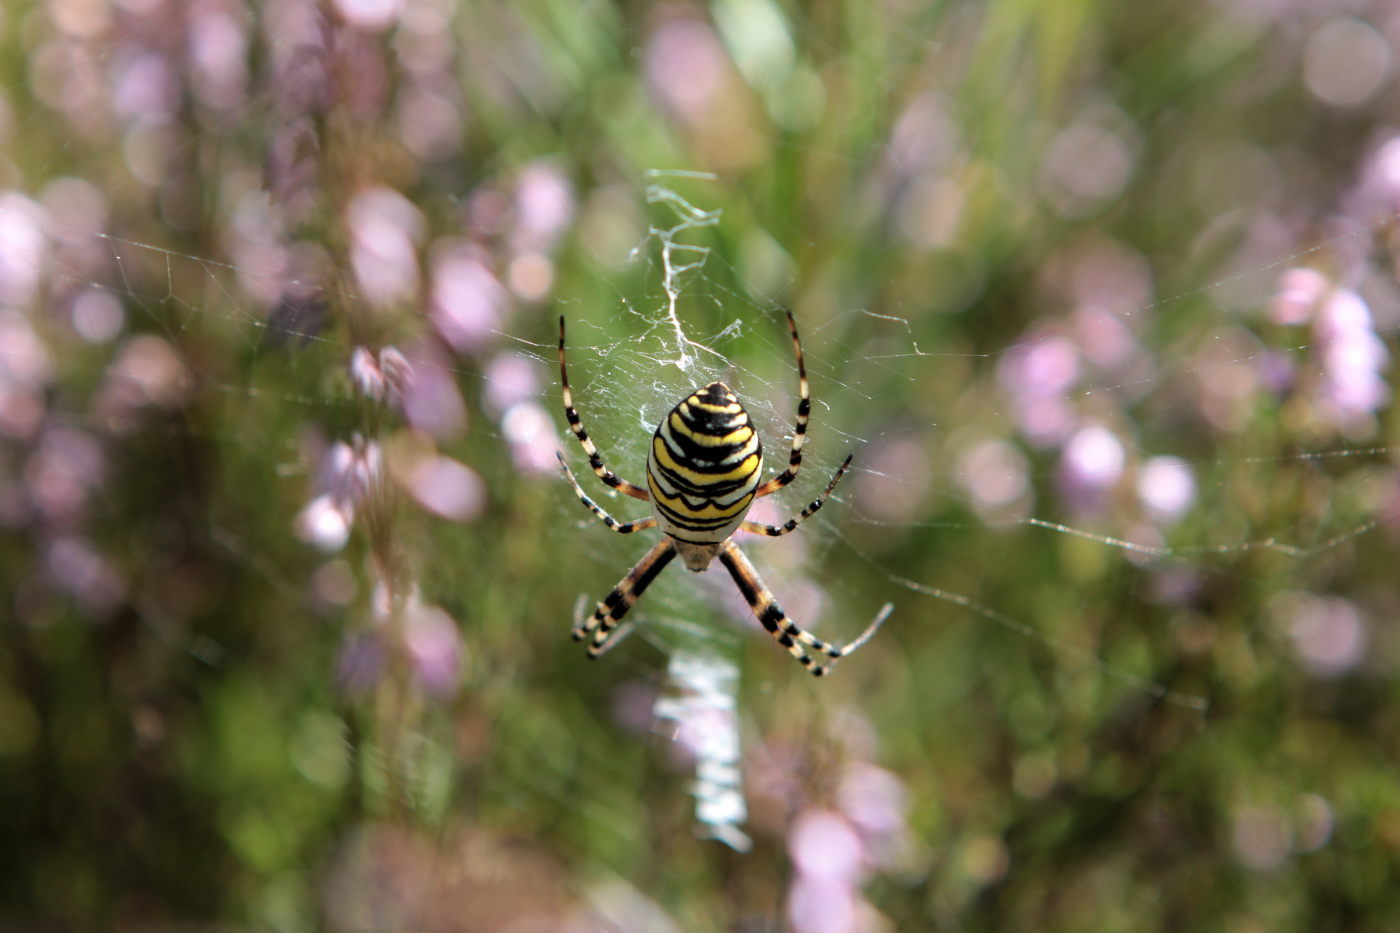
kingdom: Animalia
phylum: Arthropoda
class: Arachnida
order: Araneae
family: Araneidae
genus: Argiope
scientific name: Argiope bruennichi
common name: Wasp spider
